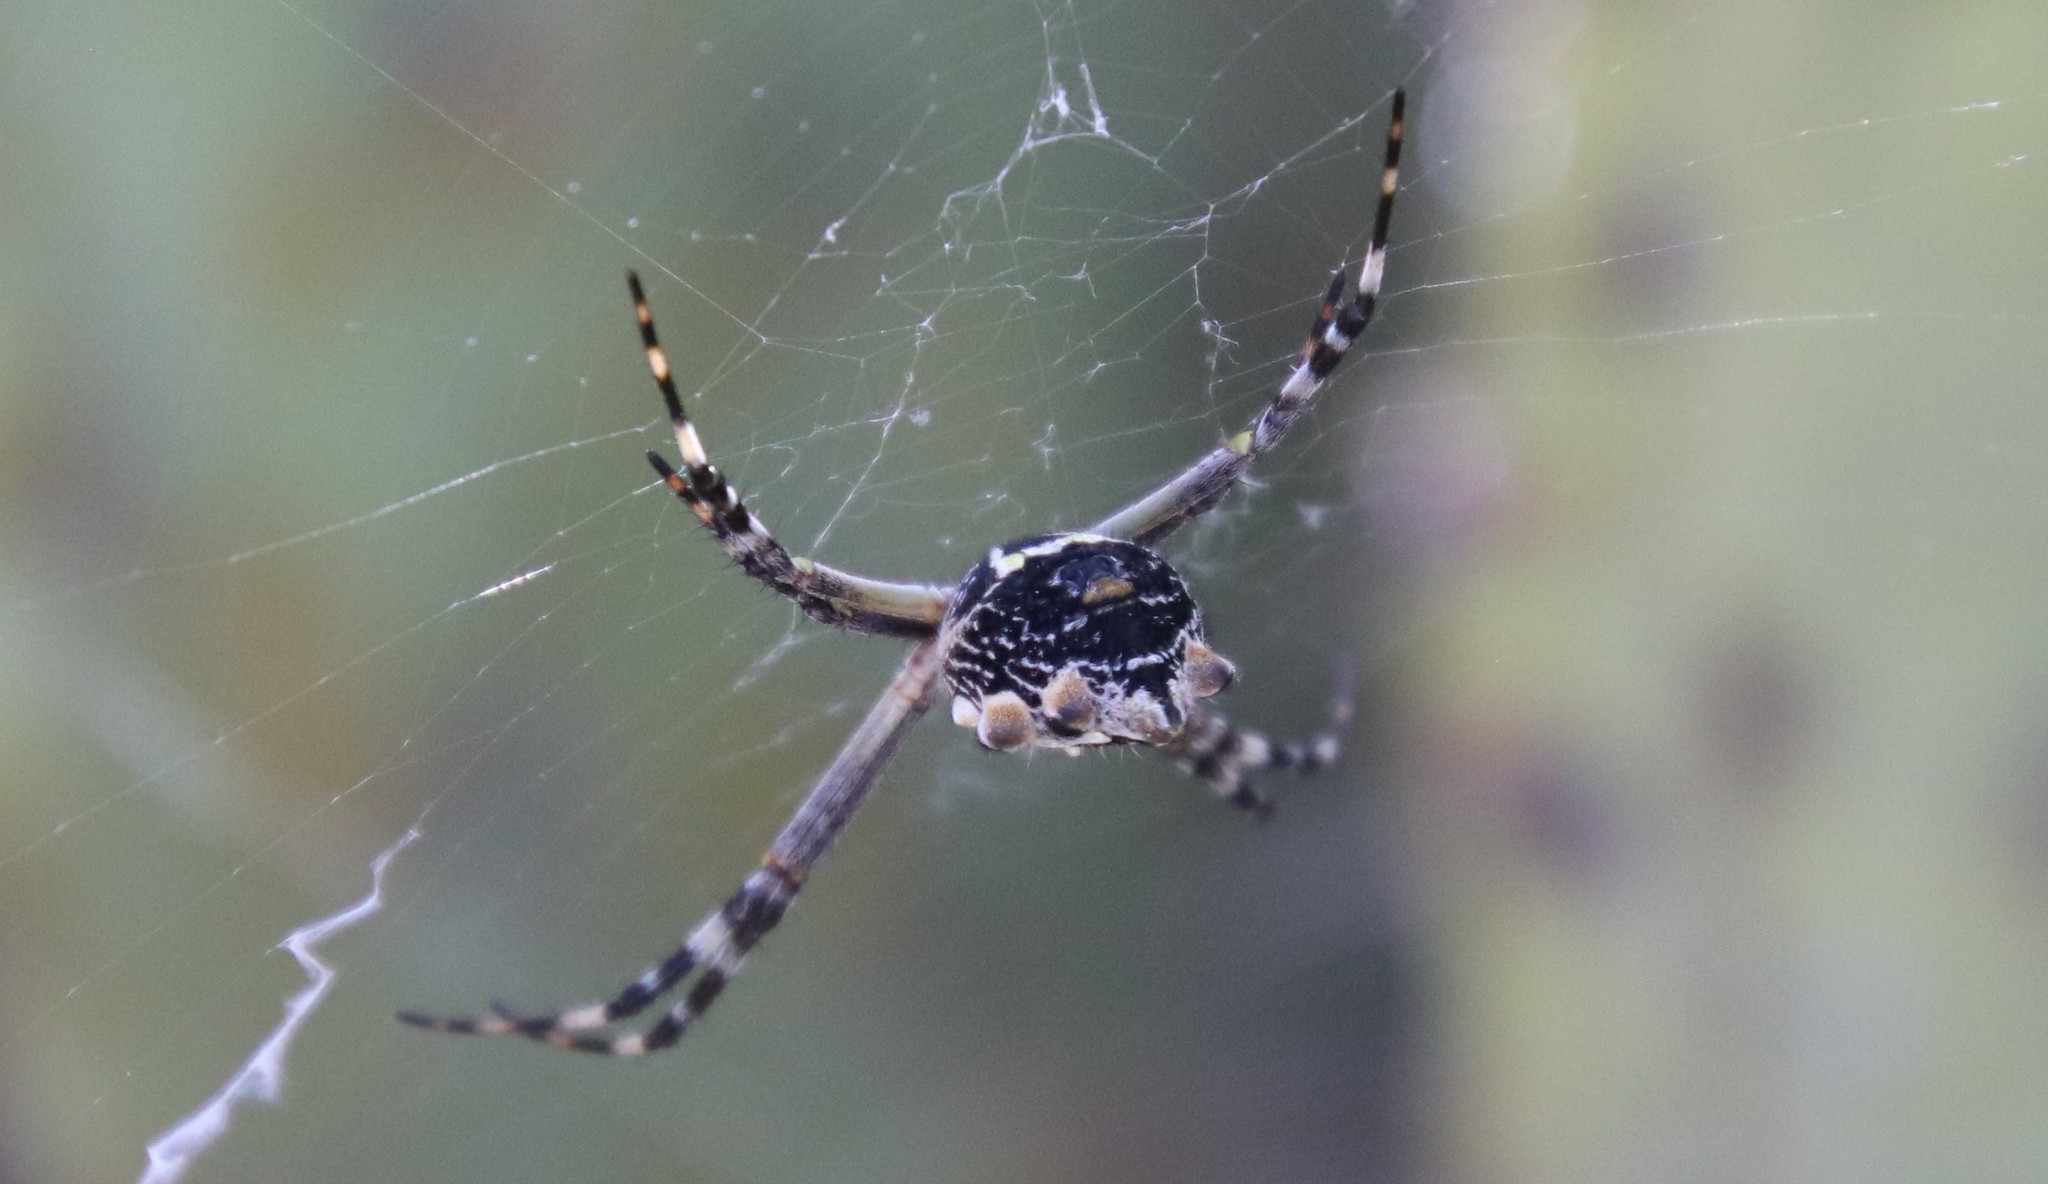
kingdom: Animalia
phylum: Arthropoda
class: Arachnida
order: Araneae
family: Araneidae
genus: Argiope
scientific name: Argiope argentata
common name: Orb weavers
